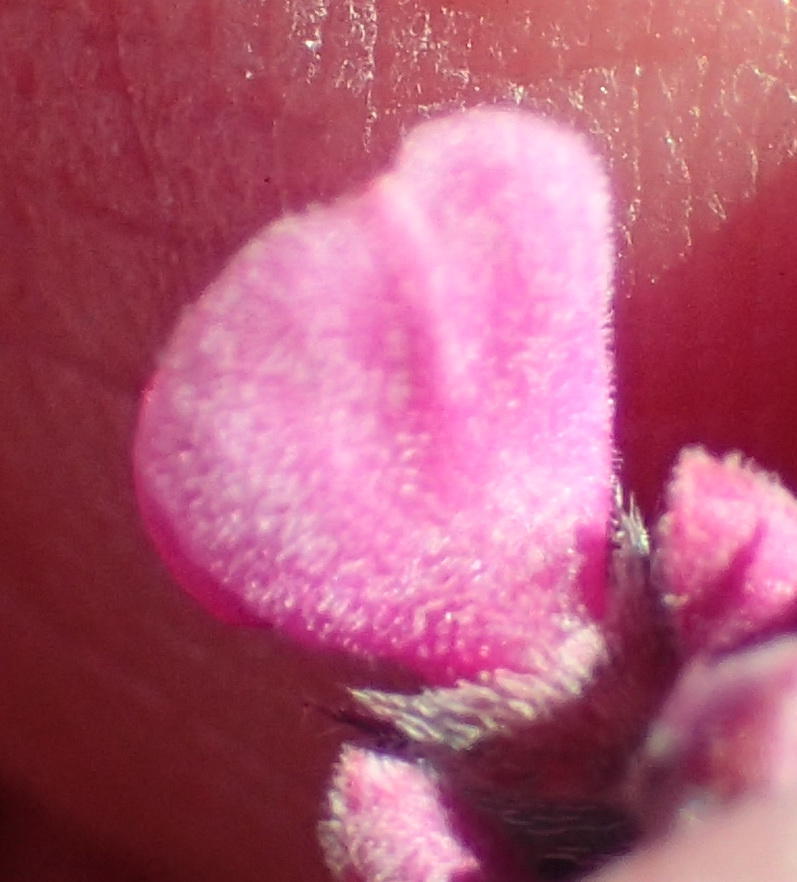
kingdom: Plantae
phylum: Tracheophyta
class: Magnoliopsida
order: Fabales
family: Fabaceae
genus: Indigofera
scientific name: Indigofera declinata
